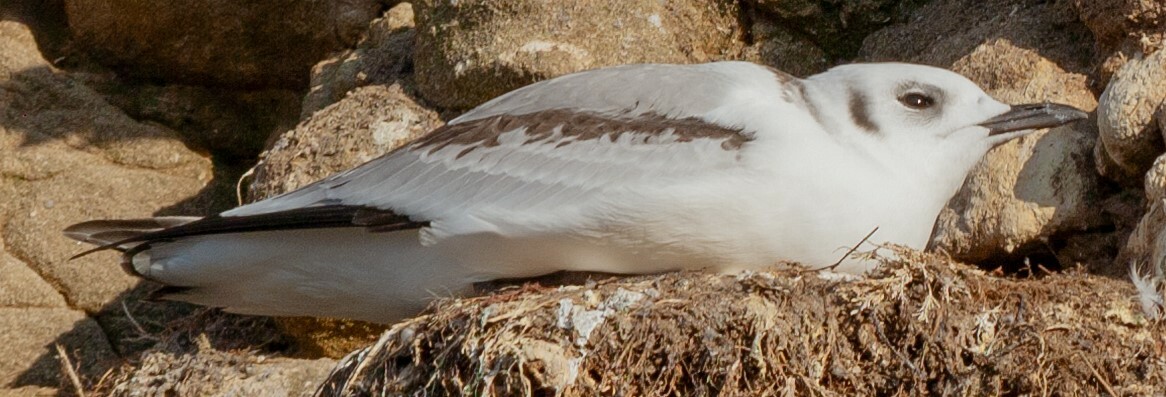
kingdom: Animalia
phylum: Chordata
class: Aves
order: Charadriiformes
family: Laridae
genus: Rissa
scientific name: Rissa tridactyla
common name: Black-legged kittiwake
